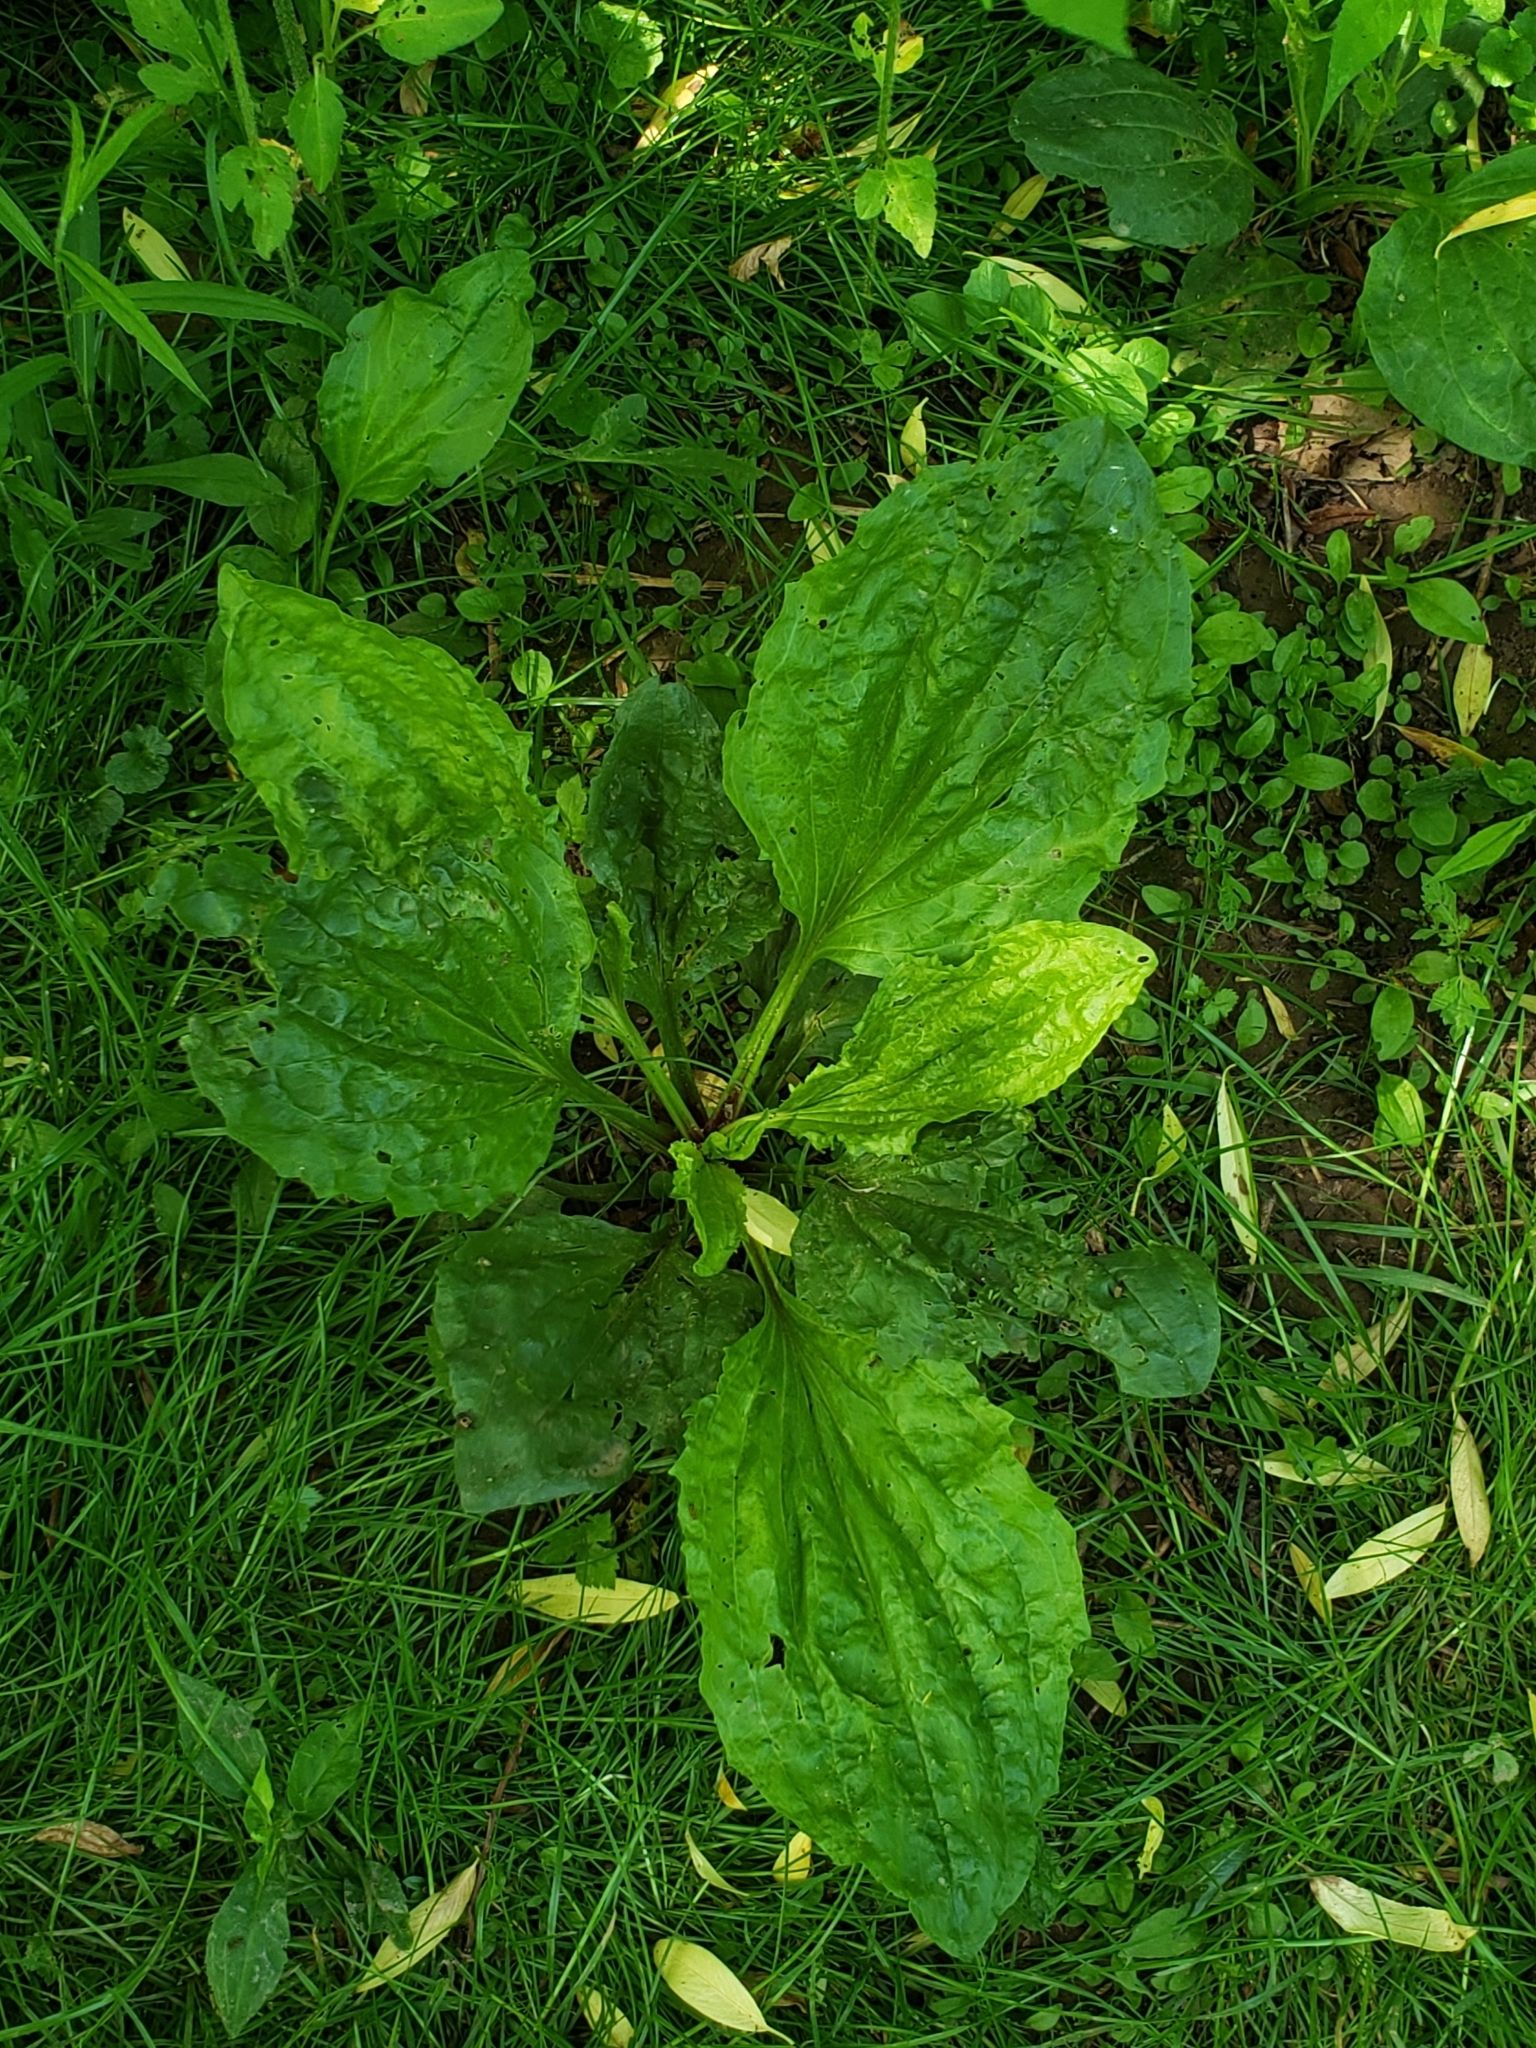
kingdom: Plantae
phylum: Tracheophyta
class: Magnoliopsida
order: Lamiales
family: Plantaginaceae
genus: Plantago
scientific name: Plantago major
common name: Common plantain
